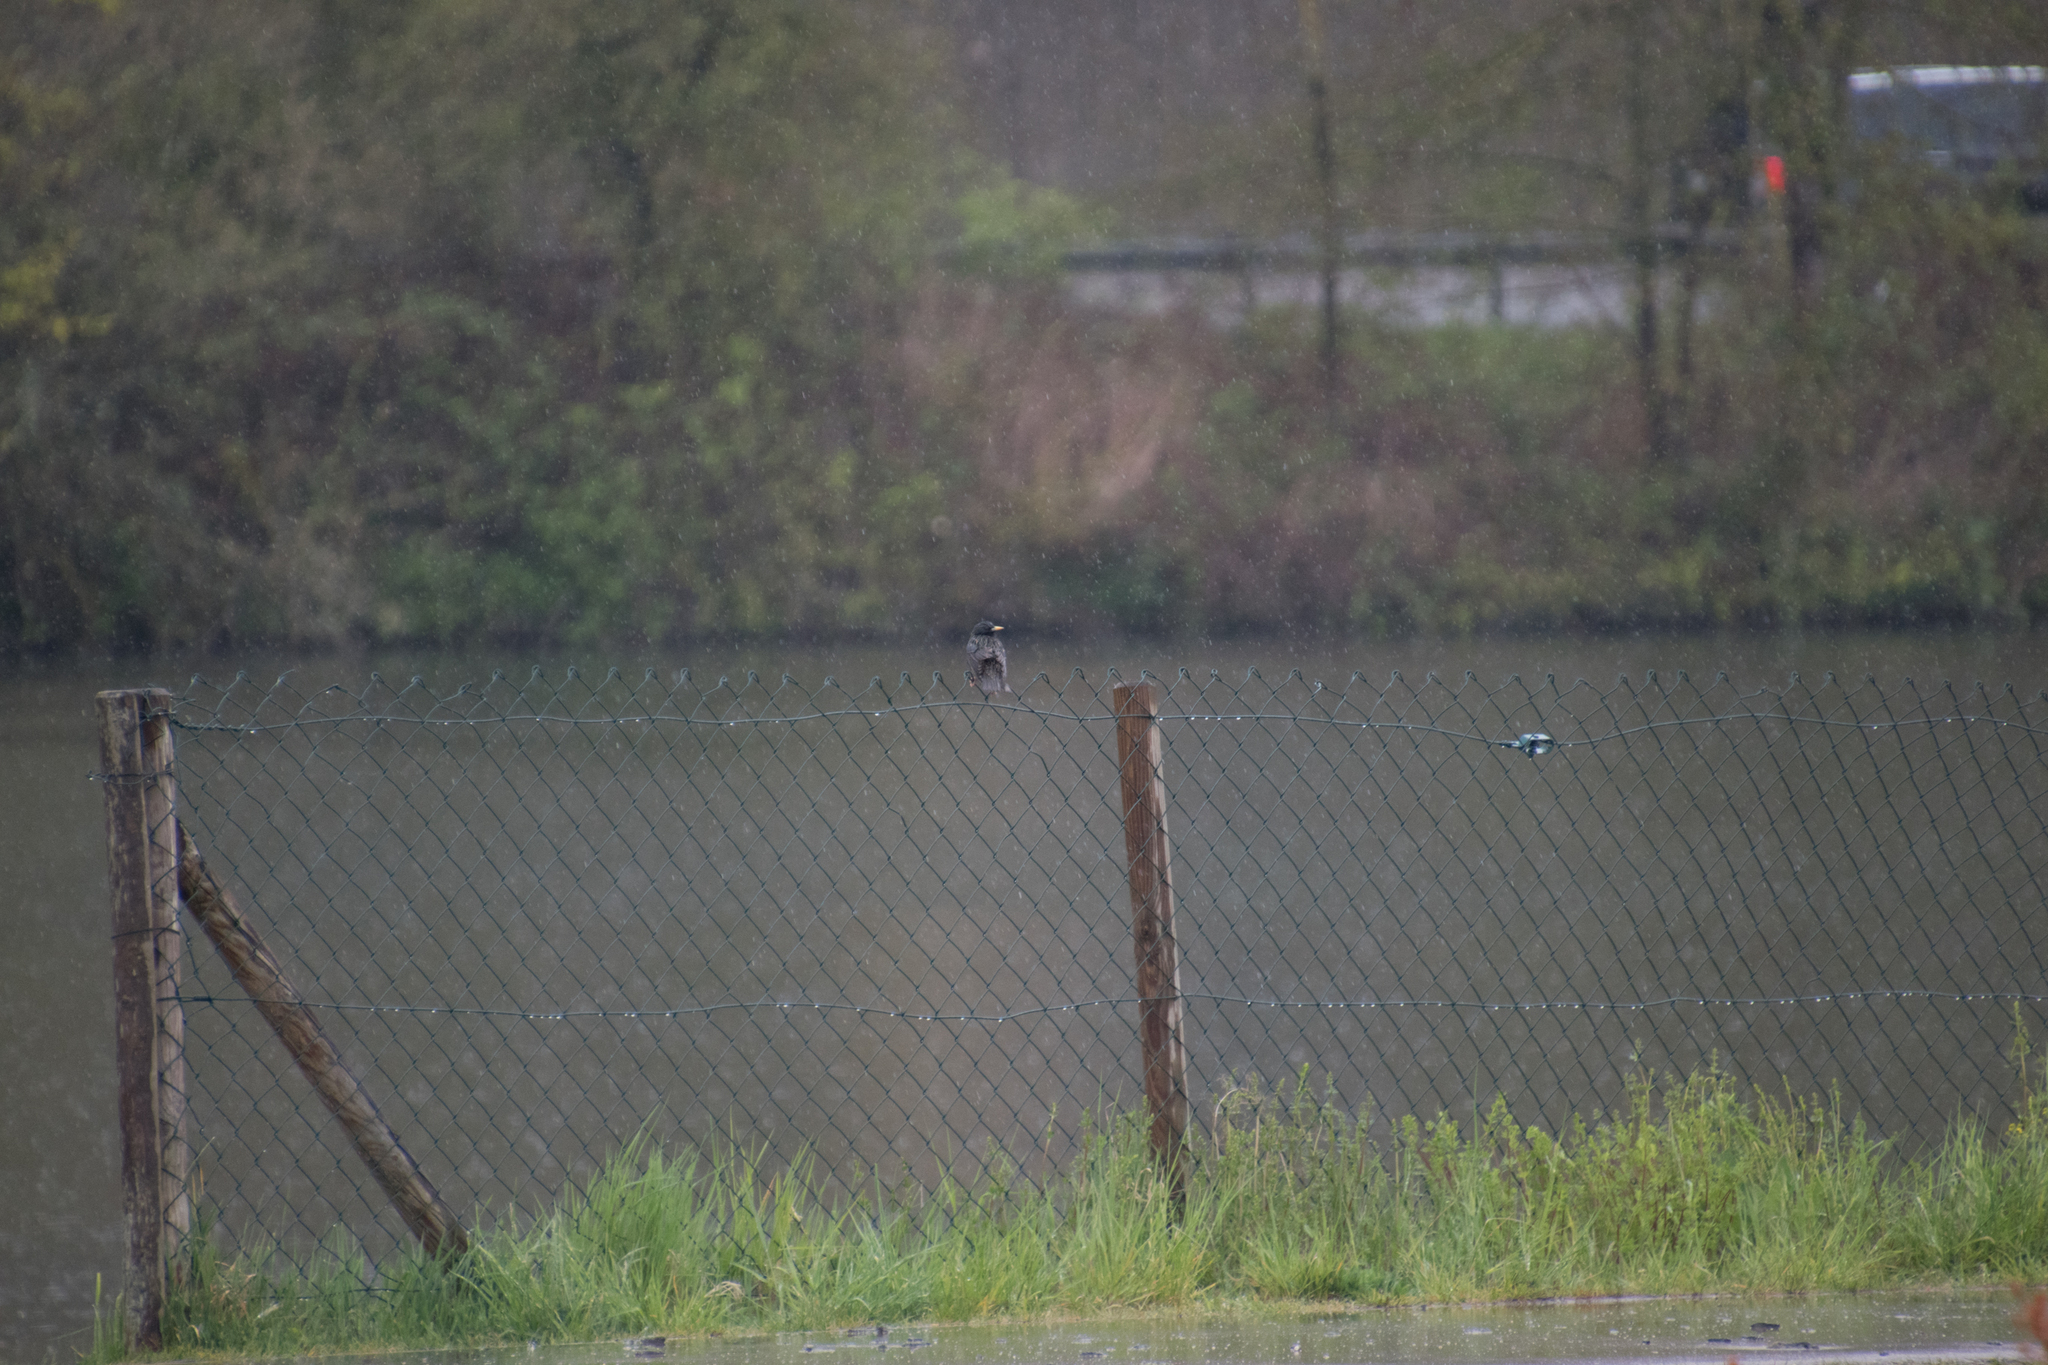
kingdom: Animalia
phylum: Chordata
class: Aves
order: Passeriformes
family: Sturnidae
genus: Sturnus
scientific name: Sturnus vulgaris
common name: Common starling
